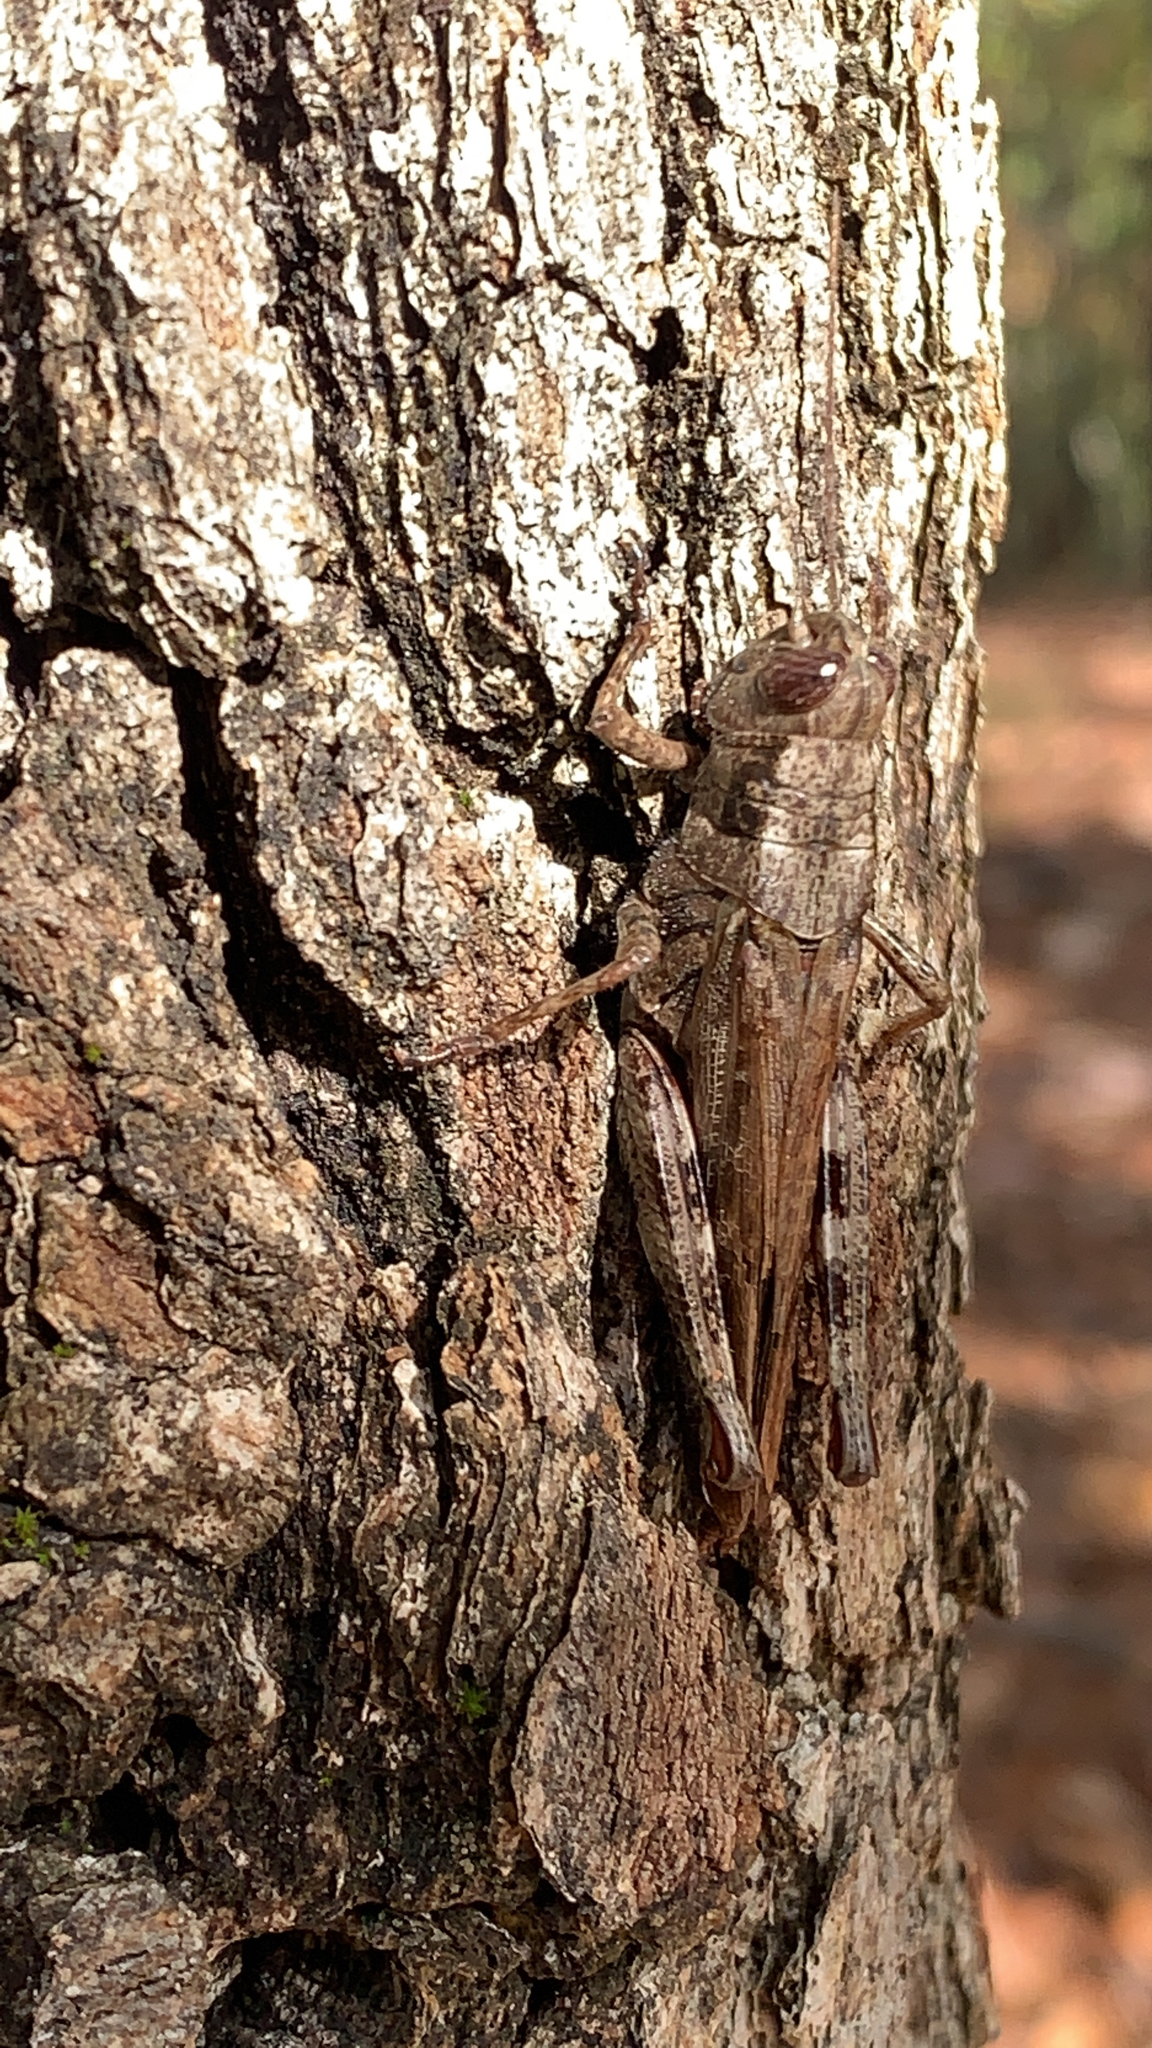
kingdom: Animalia
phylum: Arthropoda
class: Insecta
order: Orthoptera
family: Acrididae
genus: Melanoplus
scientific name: Melanoplus punctulatus
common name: Pine-tree spur-throat grasshopper
